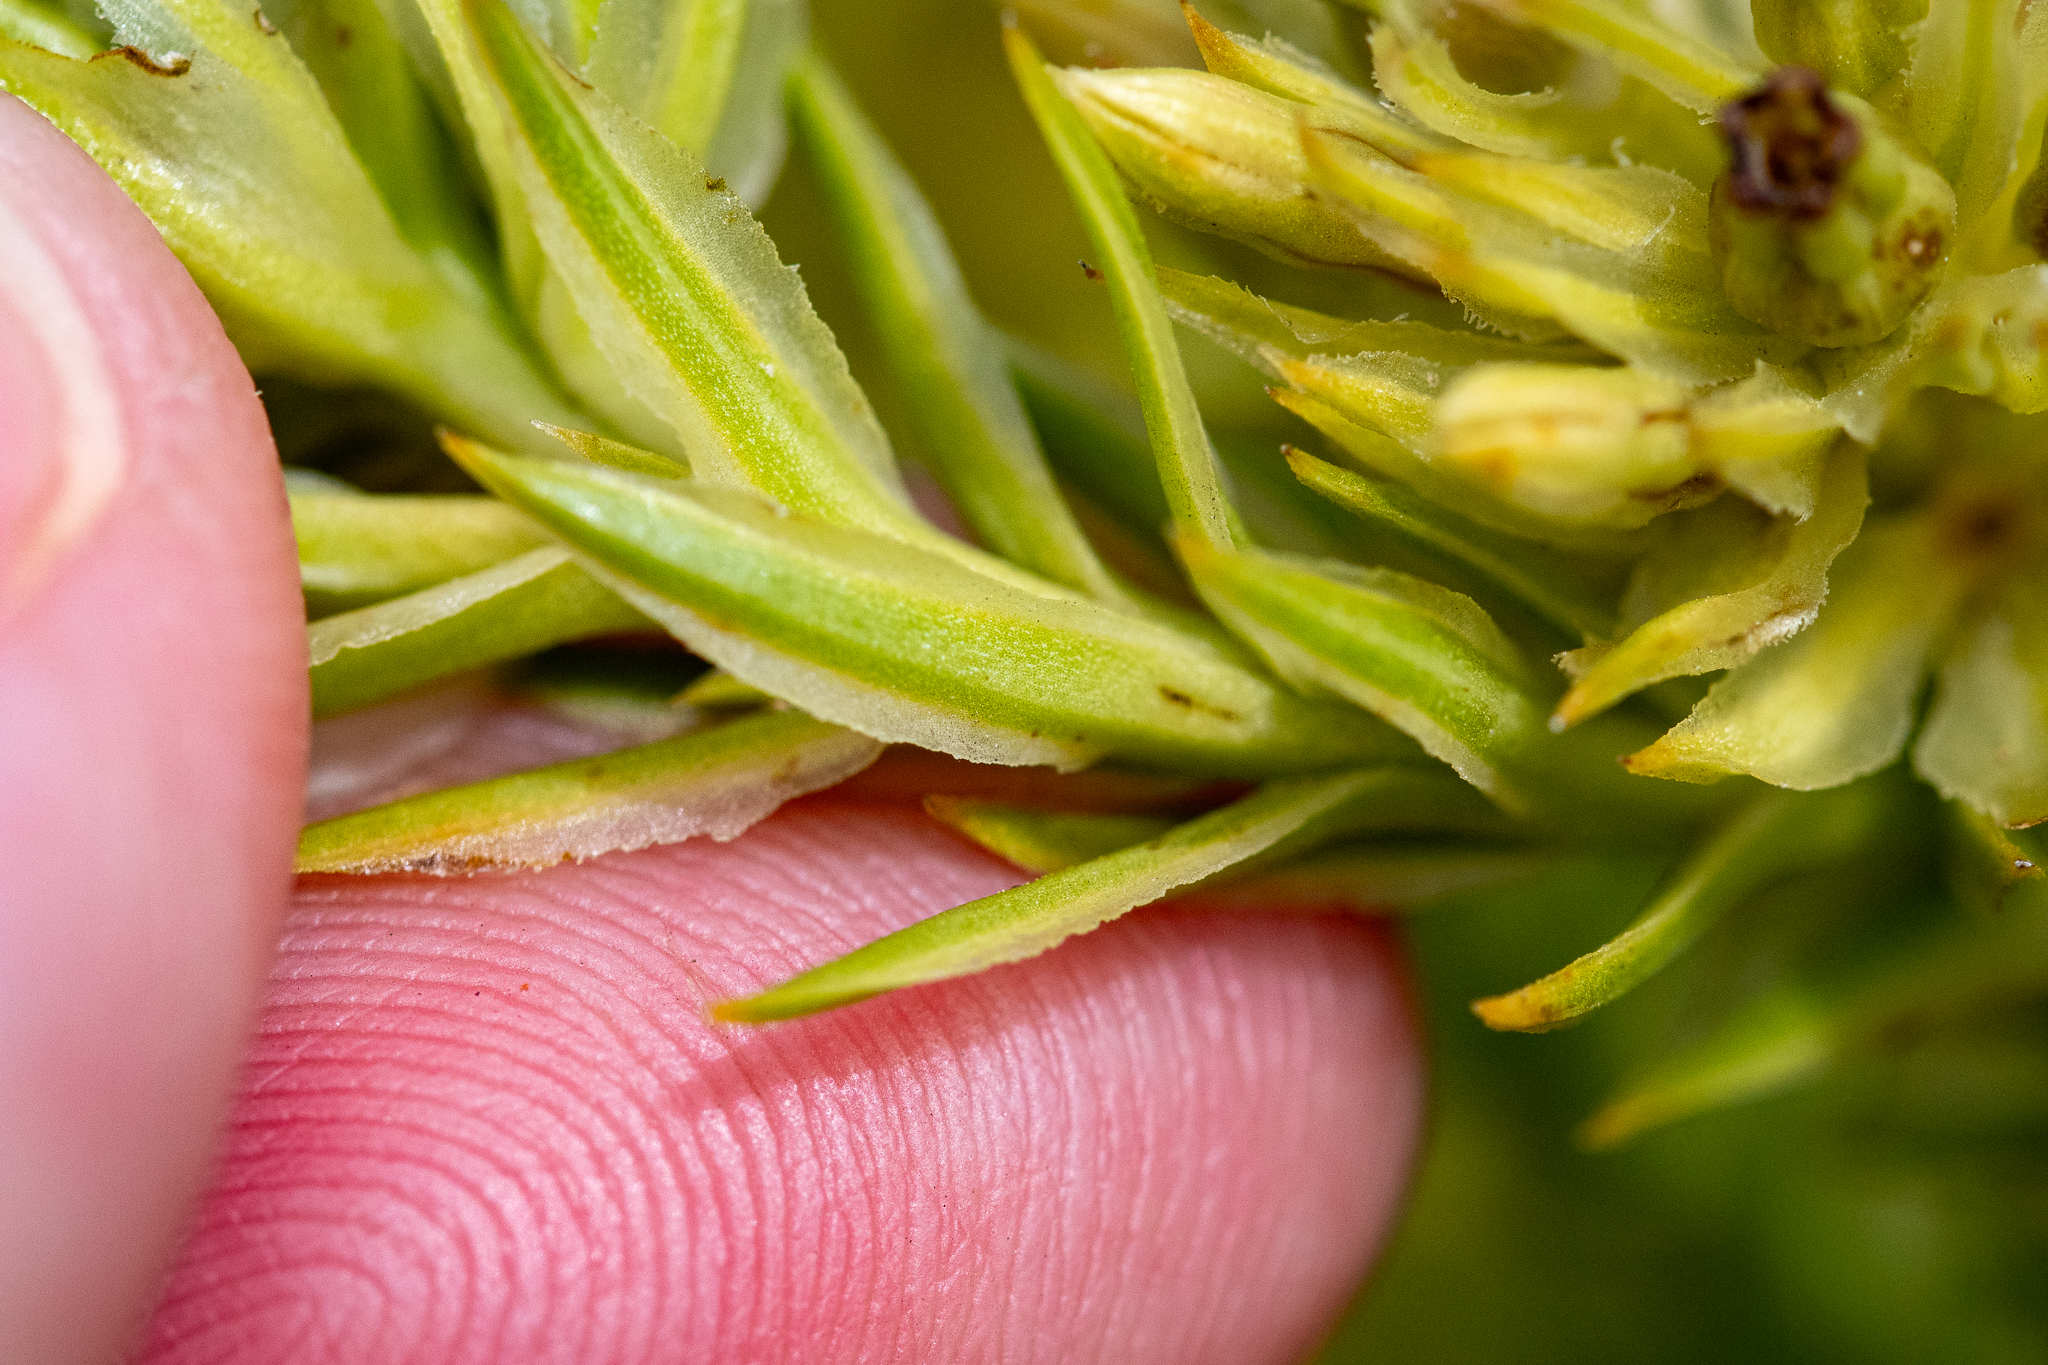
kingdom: Plantae
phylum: Tracheophyta
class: Magnoliopsida
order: Santalales
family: Thesiaceae
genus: Thesium
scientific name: Thesium viridifolium
